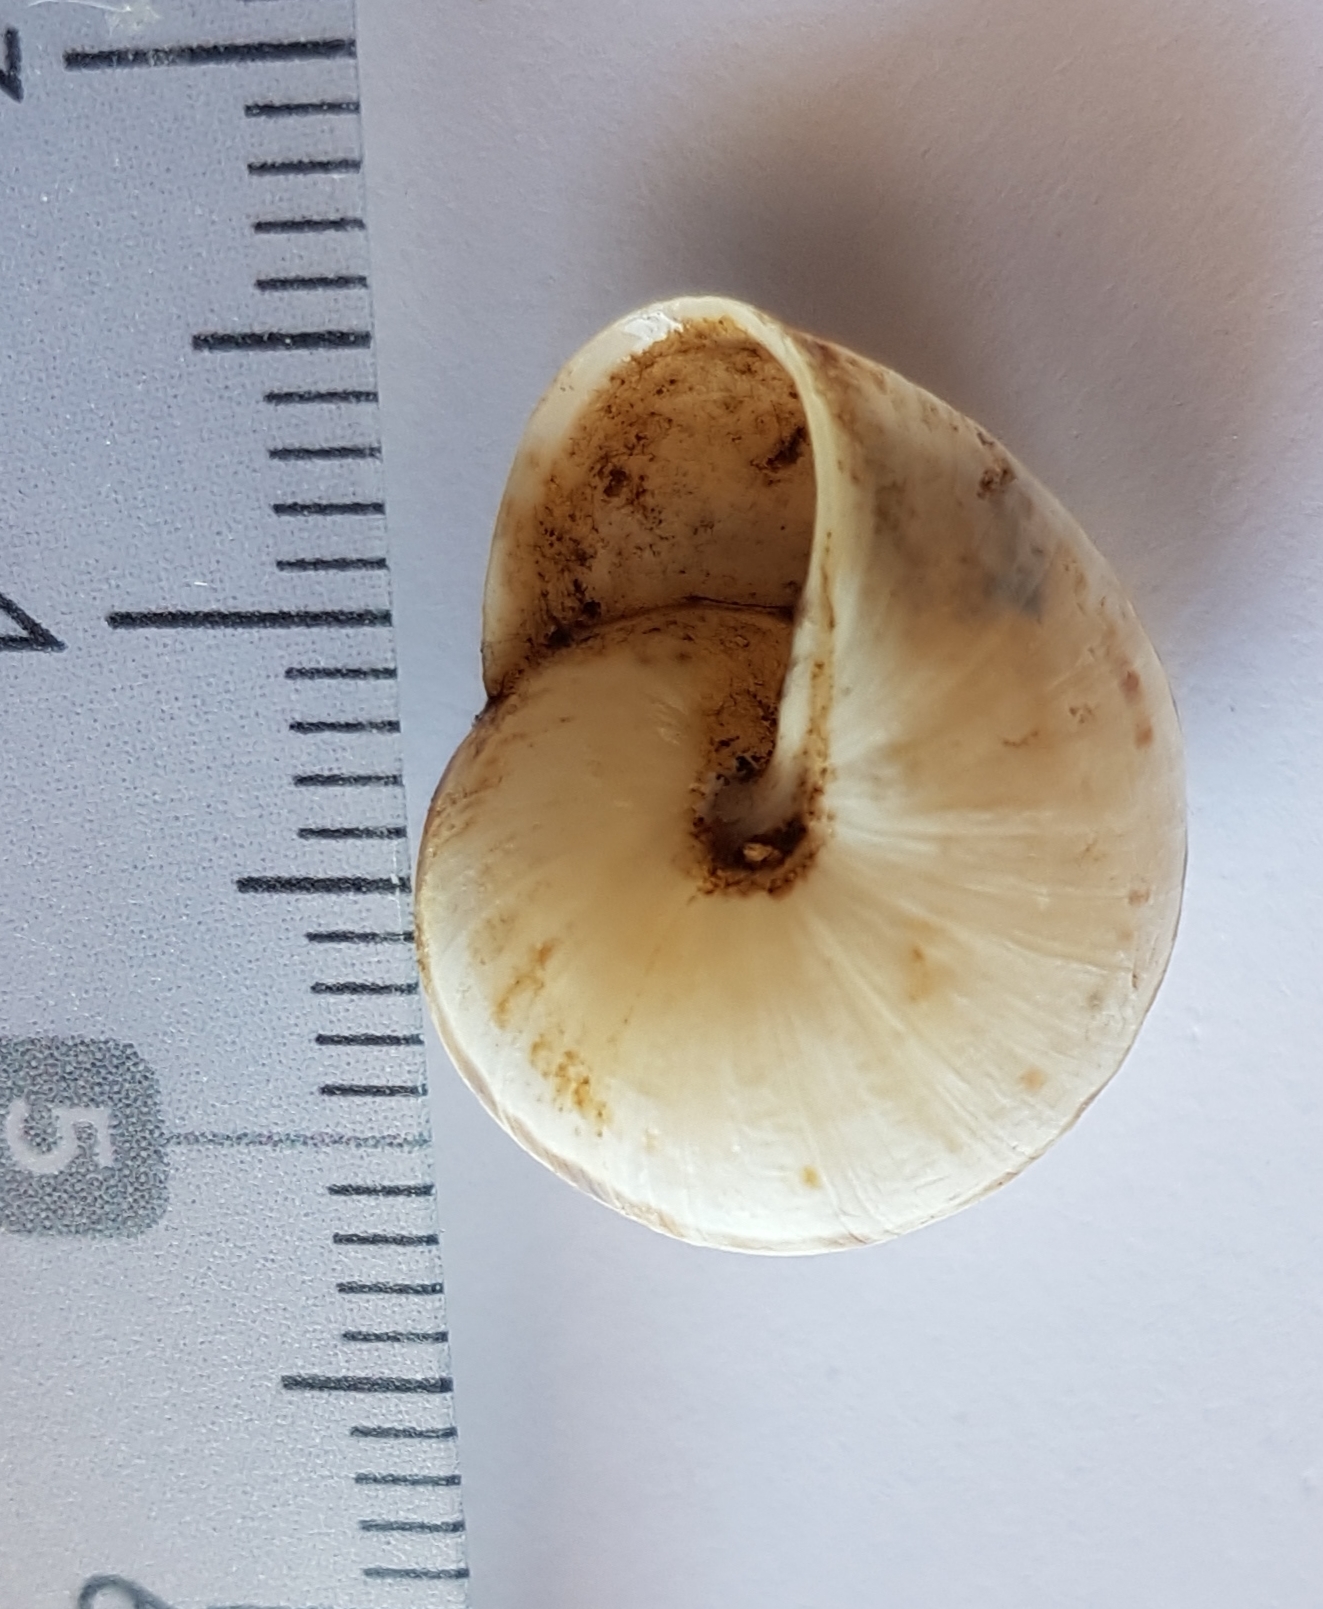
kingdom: Animalia
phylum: Mollusca
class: Gastropoda
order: Stylommatophora
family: Helicidae
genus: Pseudotachea
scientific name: Pseudotachea splendida
